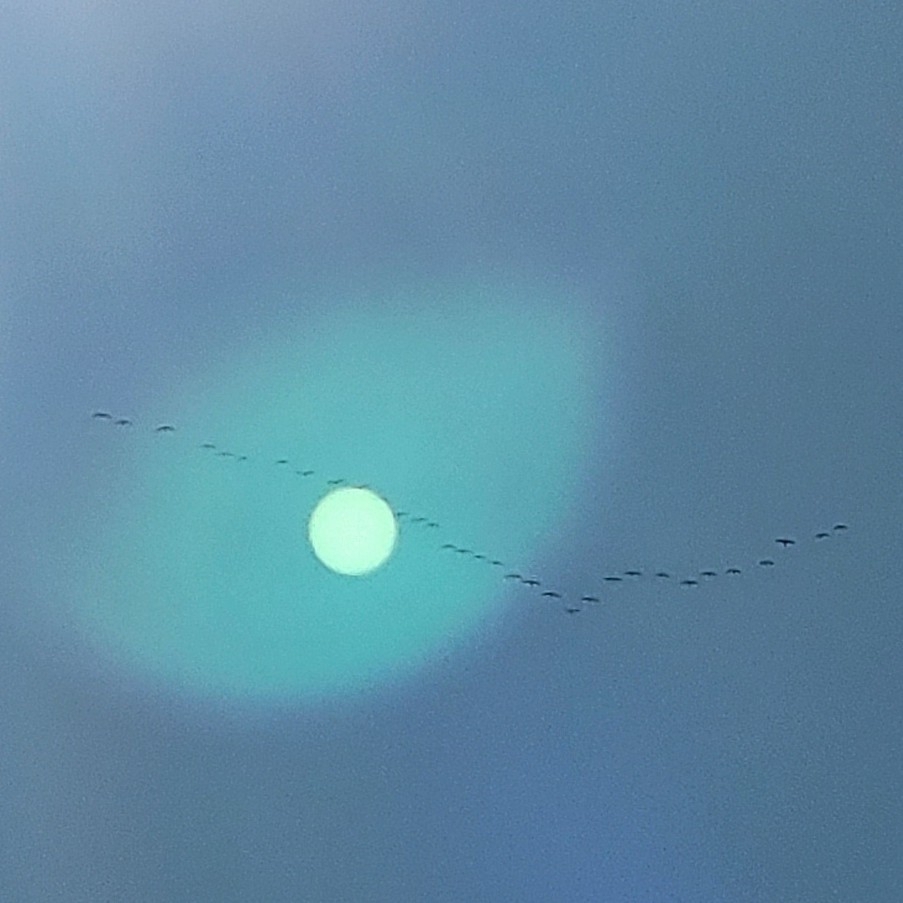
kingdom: Animalia
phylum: Chordata
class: Aves
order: Gruiformes
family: Gruidae
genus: Grus
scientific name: Grus canadensis
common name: Sandhill crane
